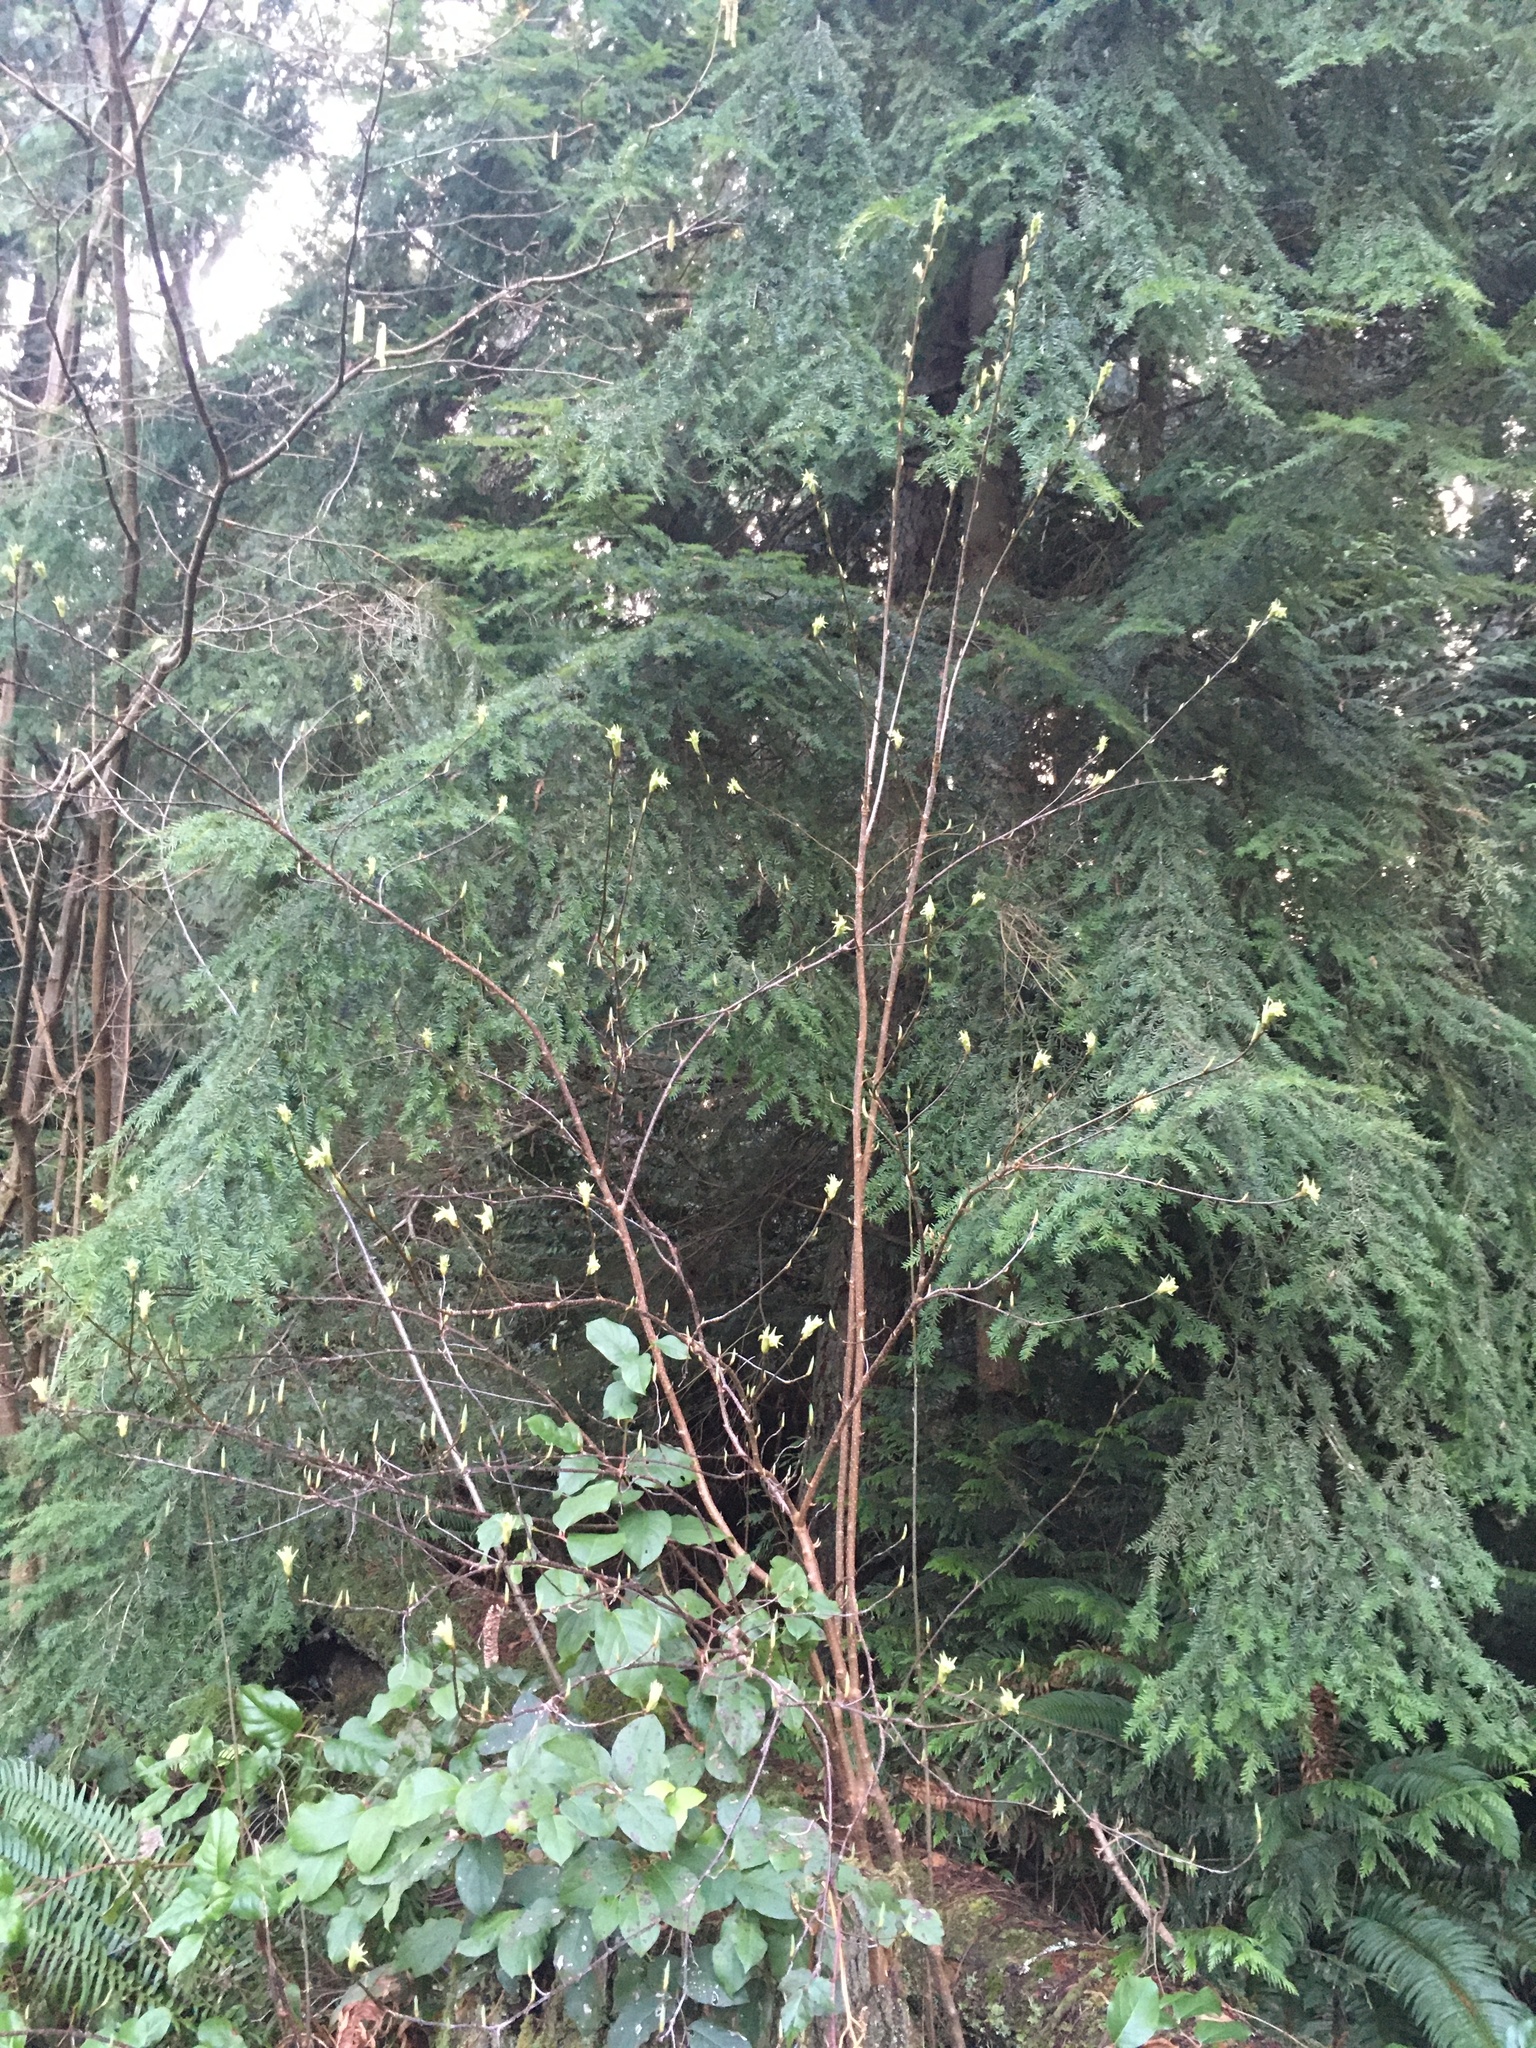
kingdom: Plantae
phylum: Tracheophyta
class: Magnoliopsida
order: Rosales
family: Rosaceae
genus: Oemleria
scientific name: Oemleria cerasiformis
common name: Osoberry
